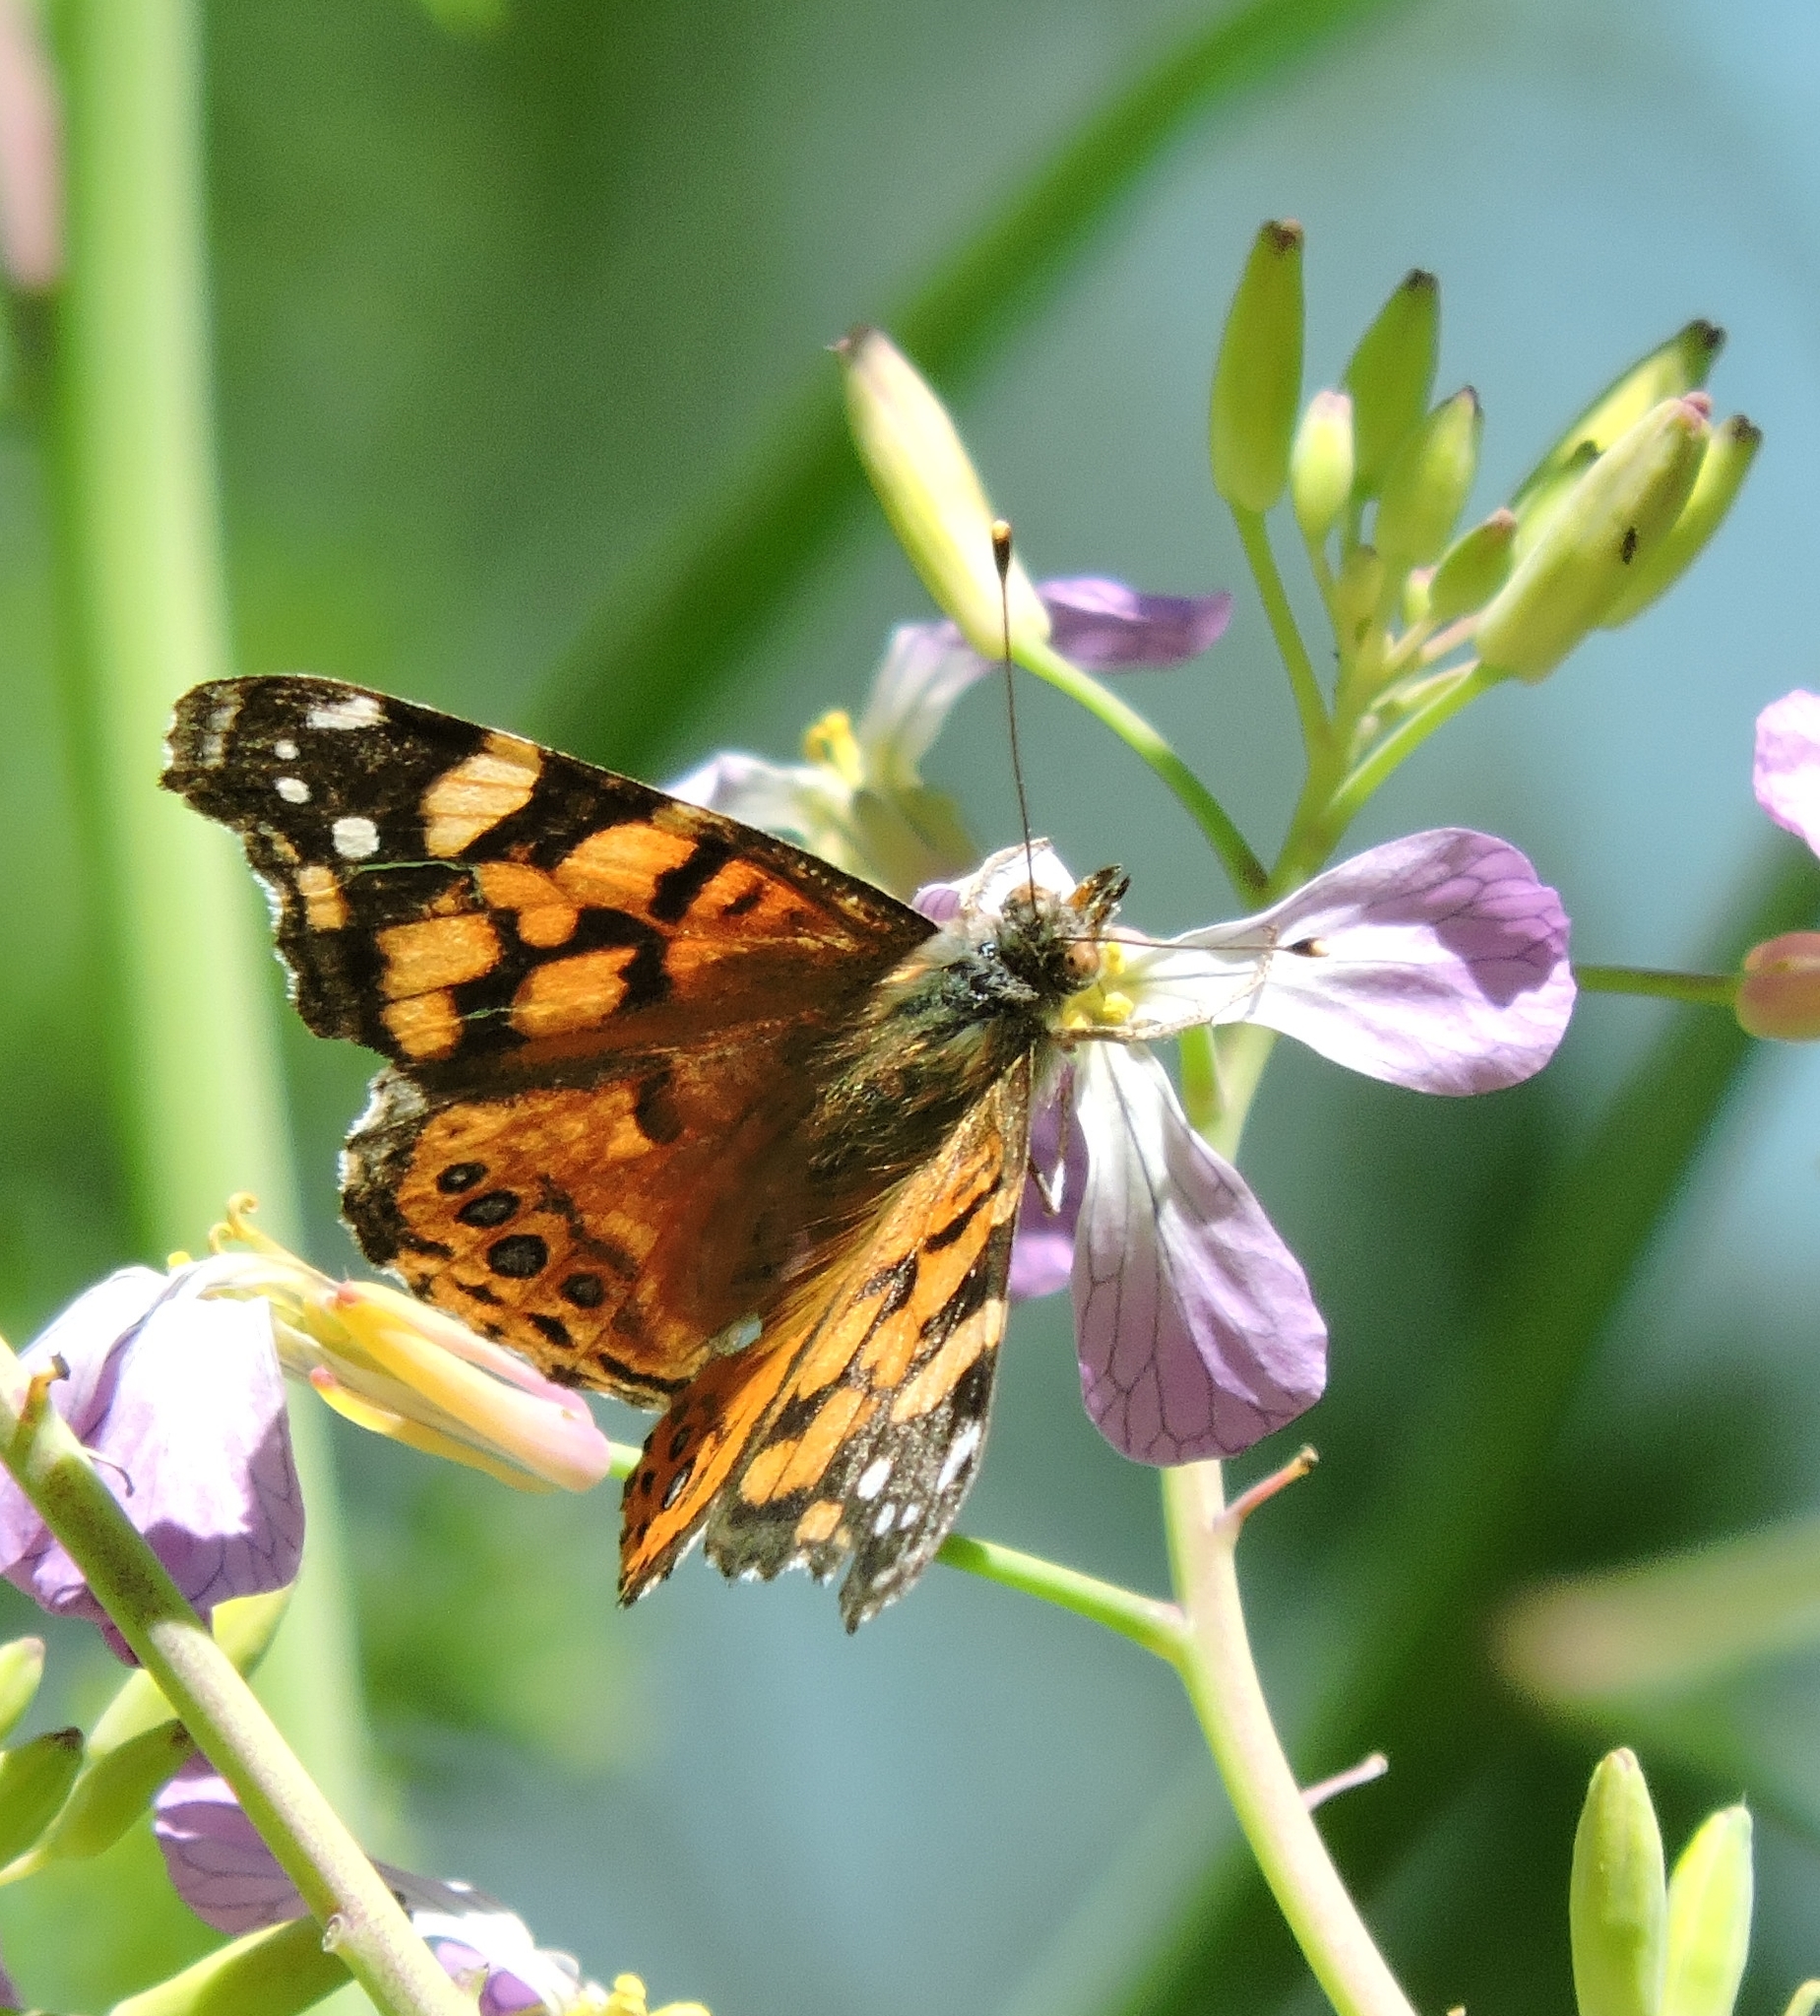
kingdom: Animalia
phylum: Arthropoda
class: Insecta
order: Lepidoptera
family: Nymphalidae
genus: Vanessa
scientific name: Vanessa annabella
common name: West coast lady
